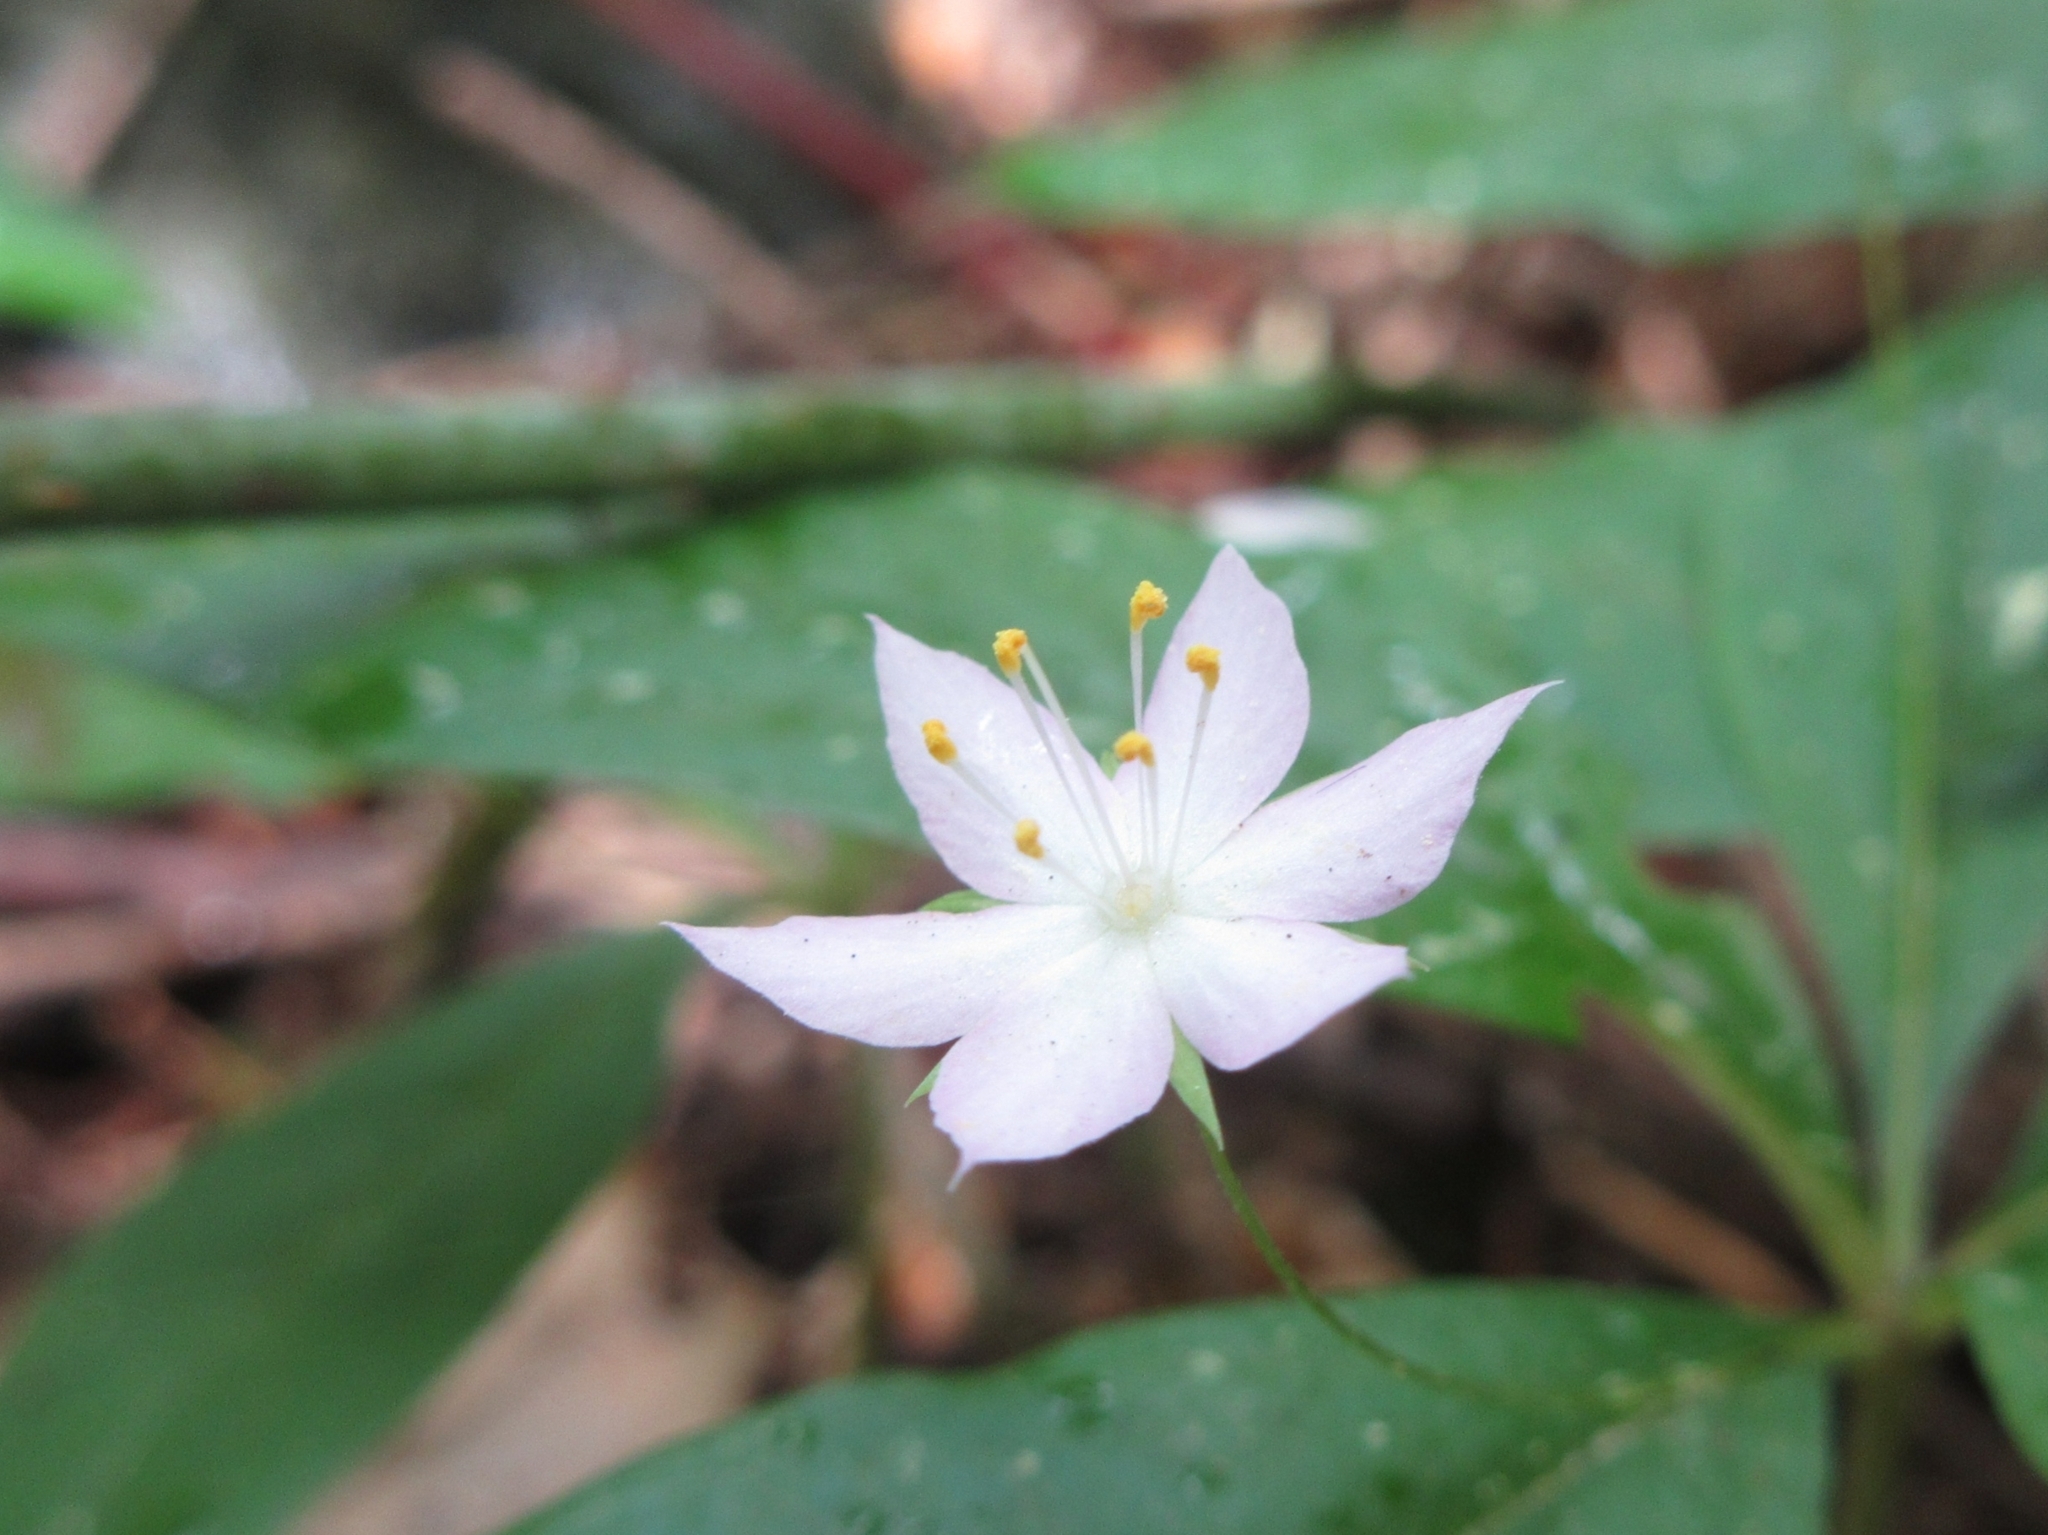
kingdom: Plantae
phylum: Tracheophyta
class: Magnoliopsida
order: Ericales
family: Primulaceae
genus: Lysimachia
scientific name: Lysimachia latifolia
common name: Pacific starflower
